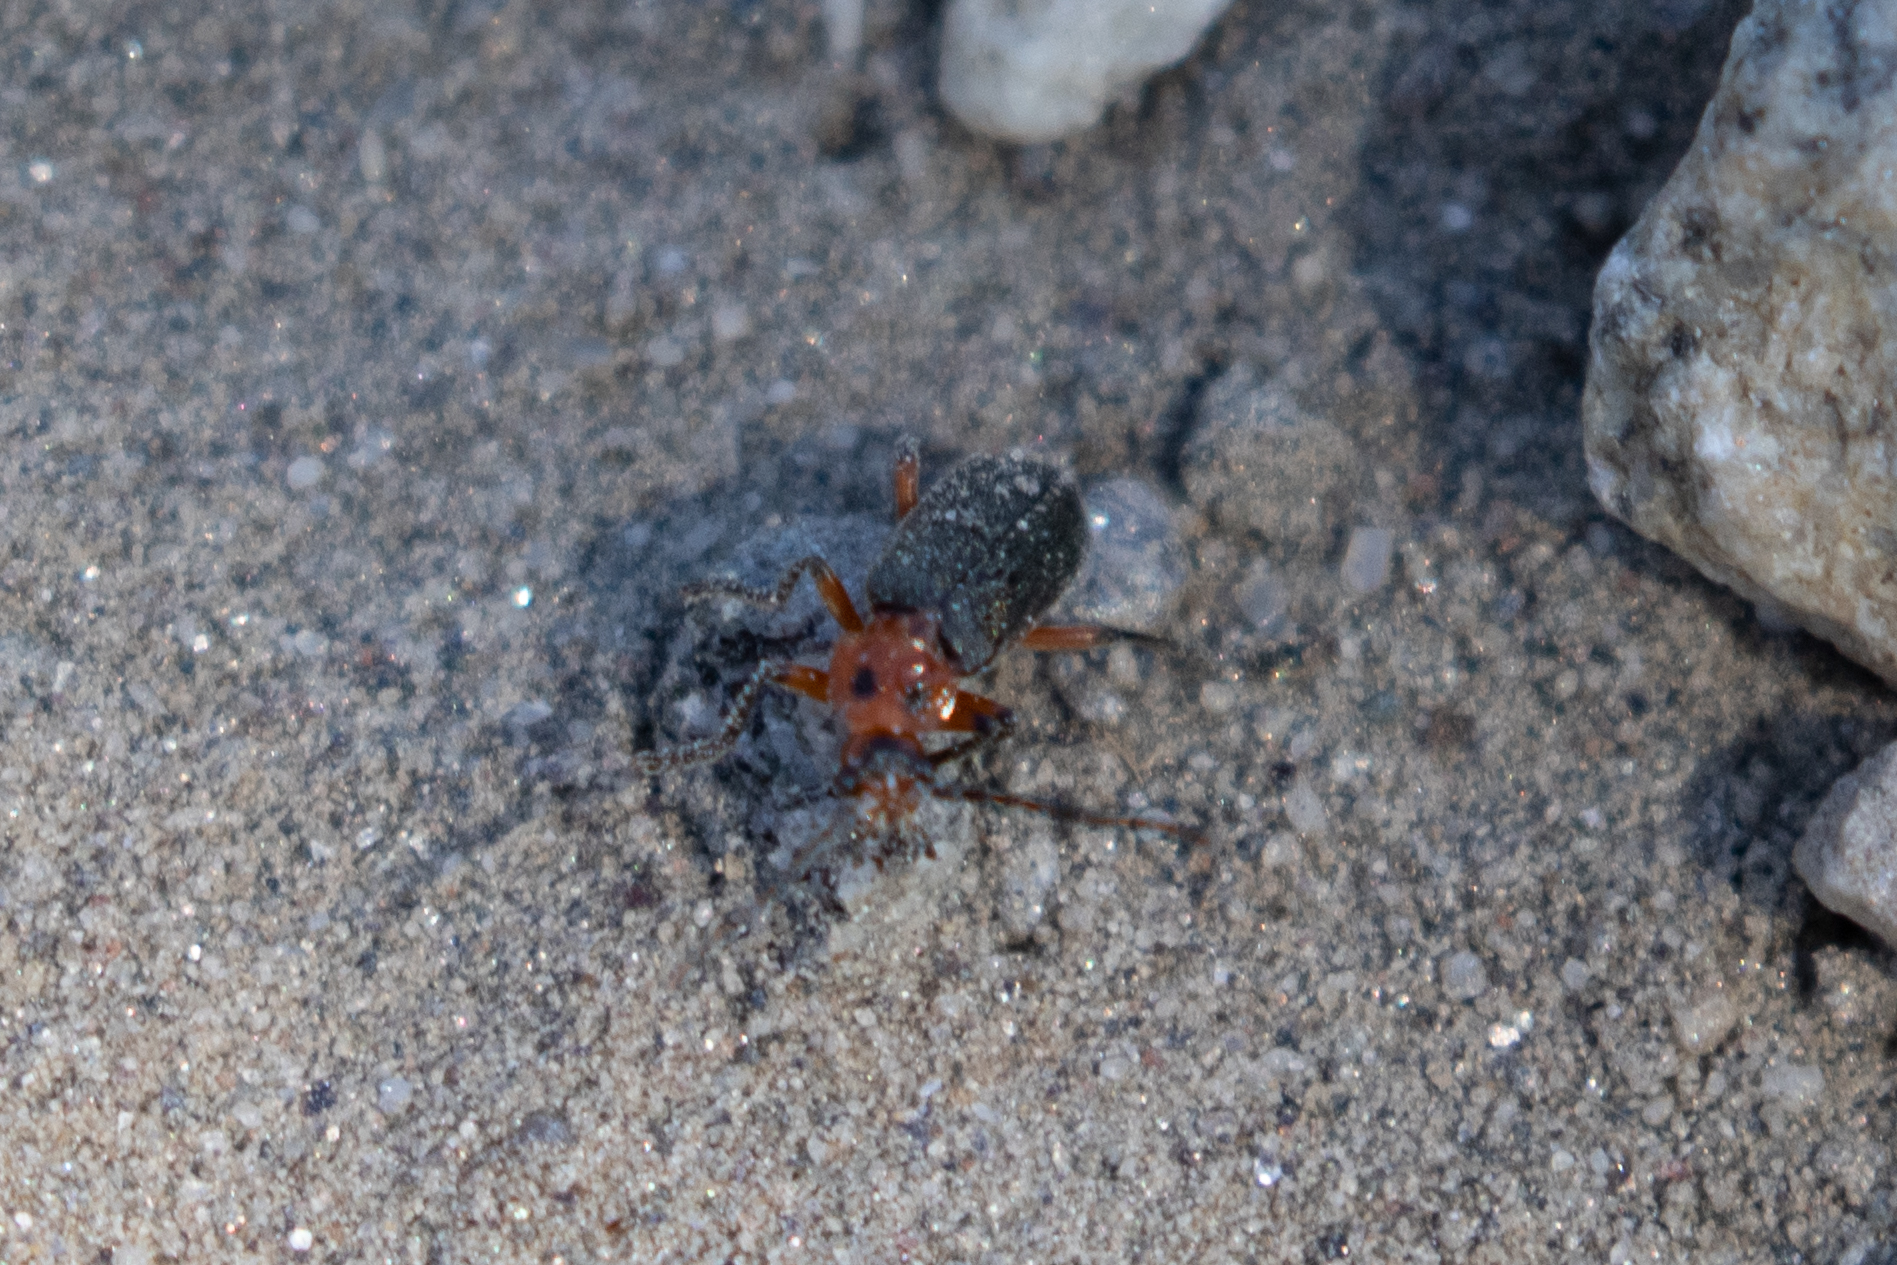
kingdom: Animalia
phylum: Arthropoda
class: Insecta
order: Coleoptera
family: Cantharidae
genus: Atalantycha
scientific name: Atalantycha bilineata
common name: Two-lined leatherwing
